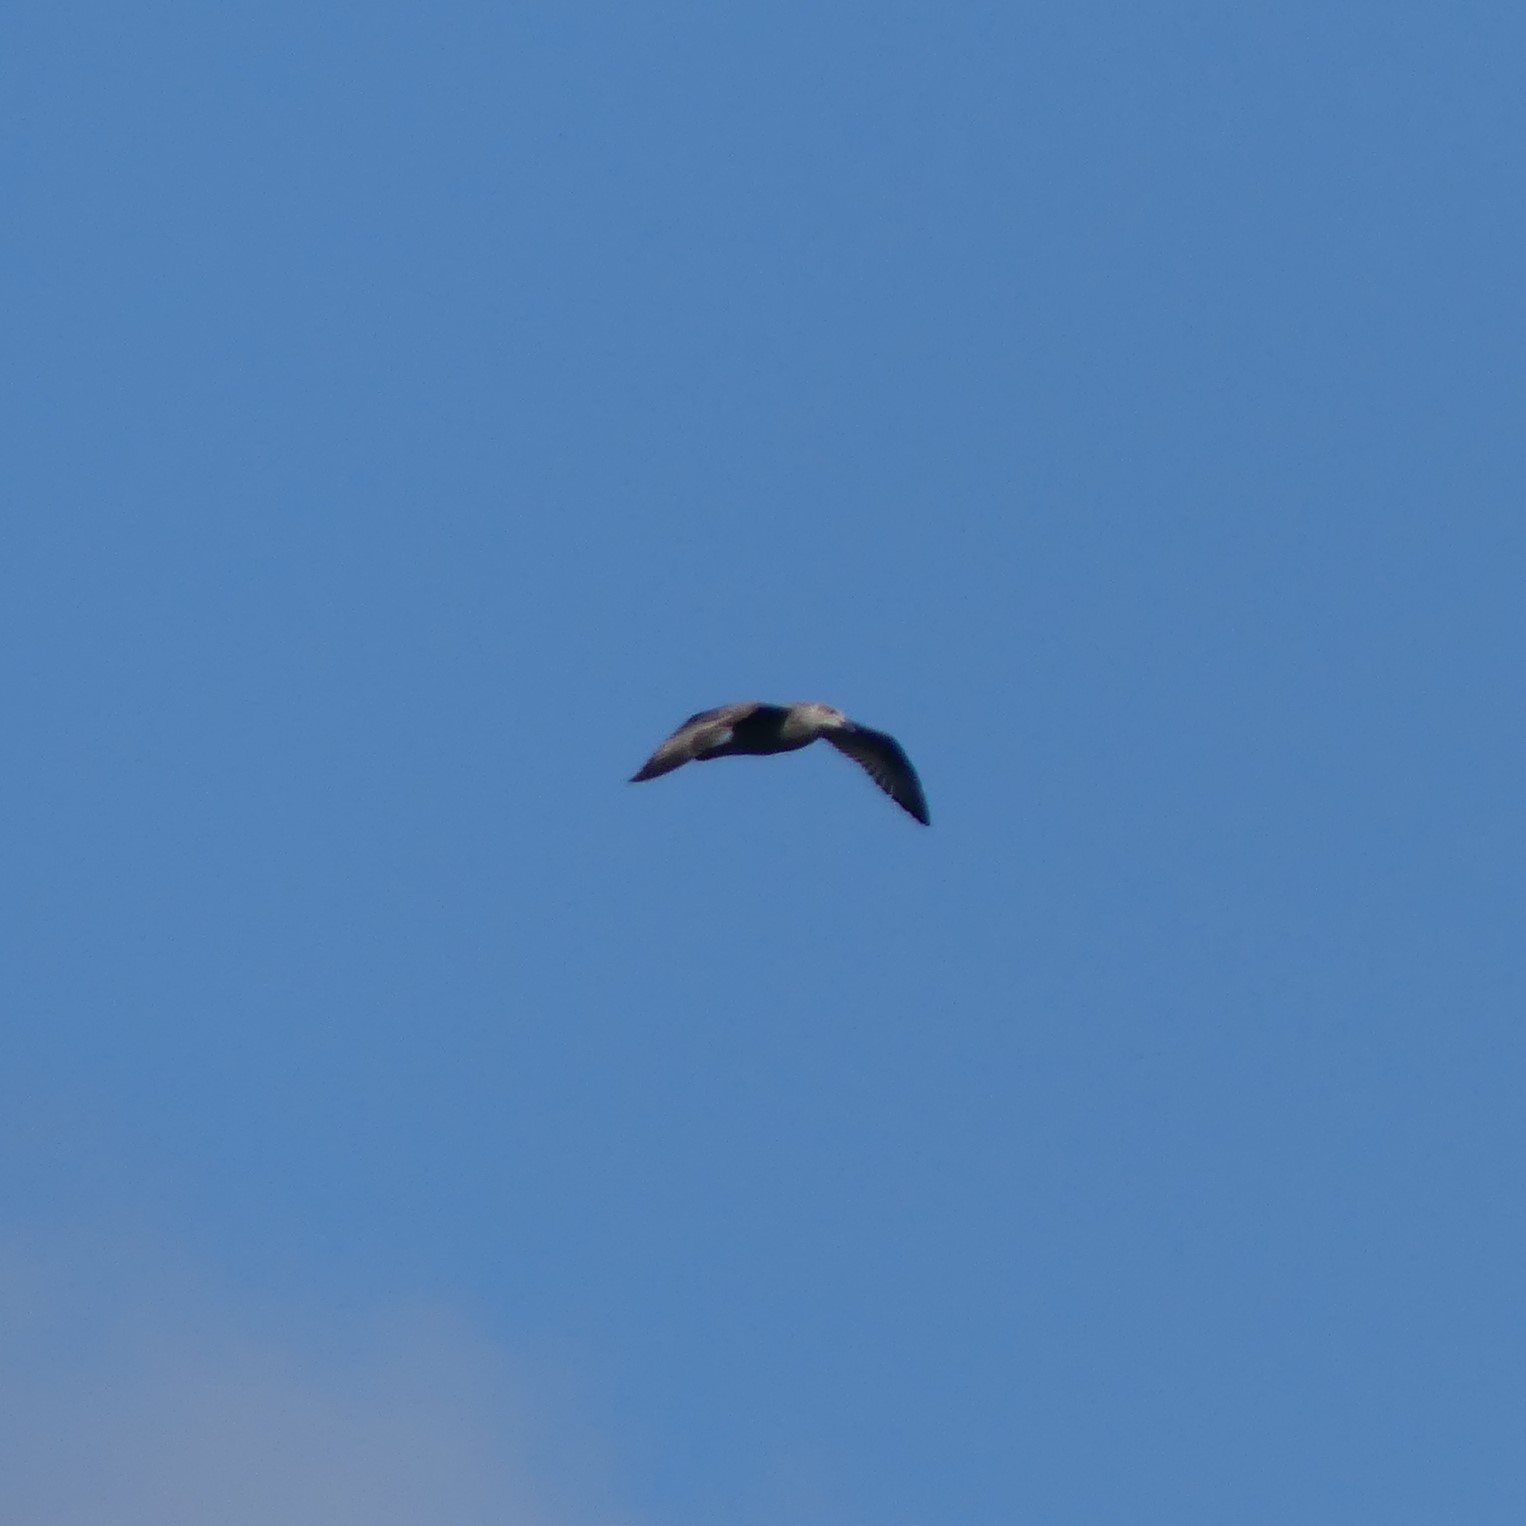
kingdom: Animalia
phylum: Chordata
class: Aves
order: Charadriiformes
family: Laridae
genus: Larus
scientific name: Larus argentatus
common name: Herring gull
